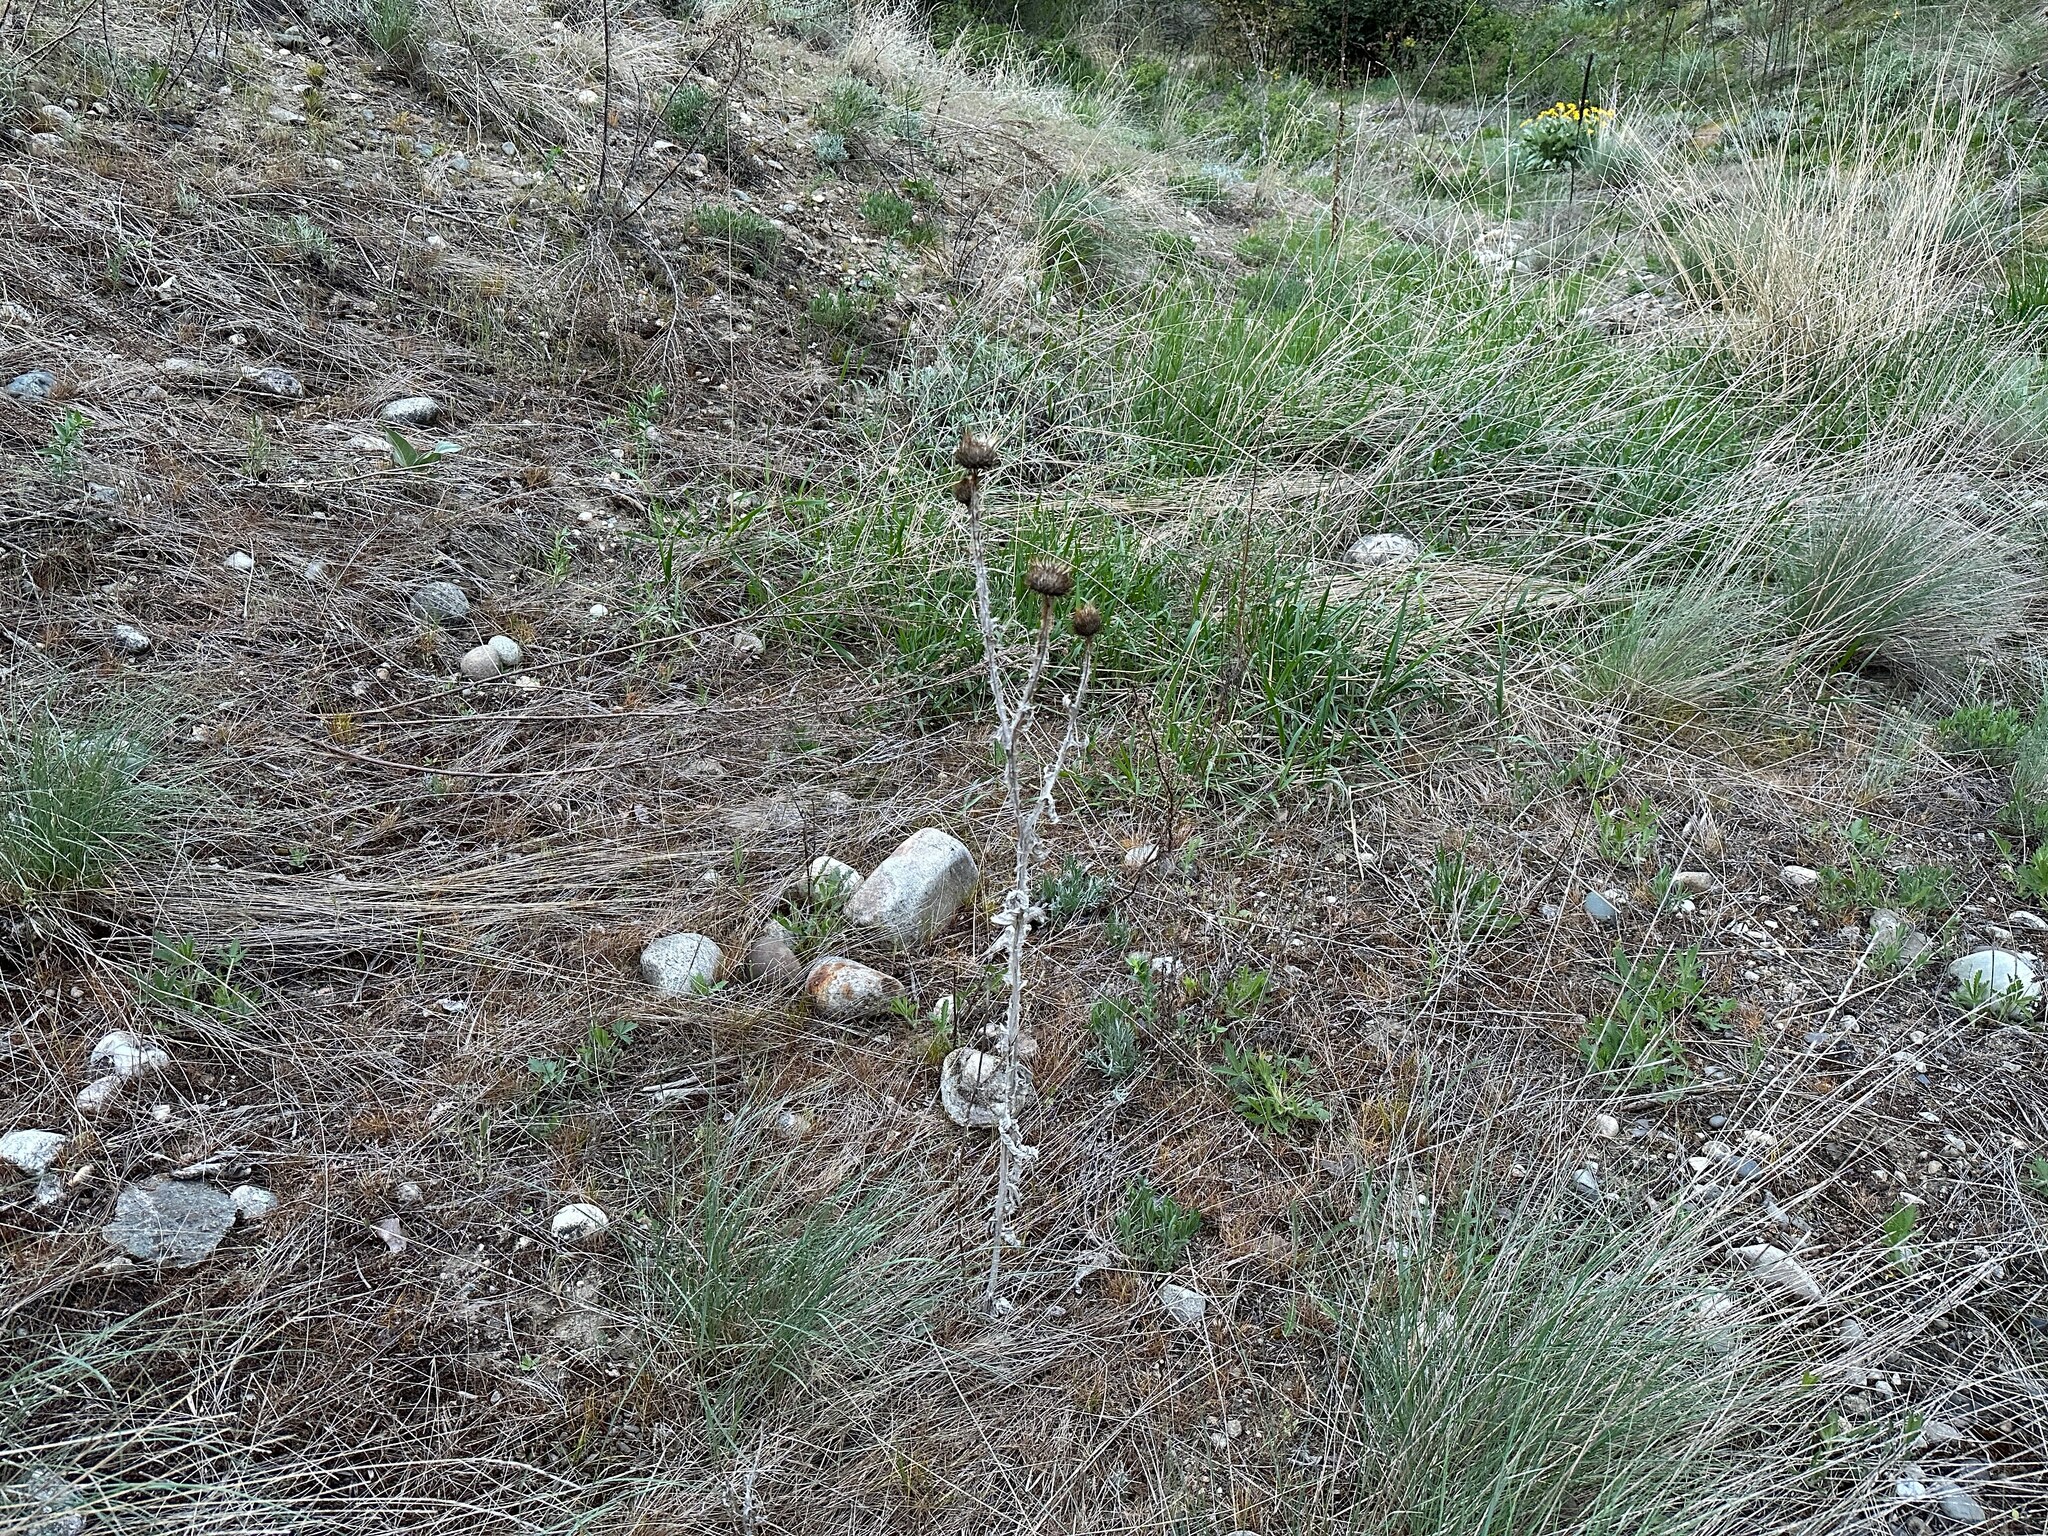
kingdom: Plantae
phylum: Tracheophyta
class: Magnoliopsida
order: Asterales
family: Asteraceae
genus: Onopordum
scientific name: Onopordum acanthium
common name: Scotch thistle
